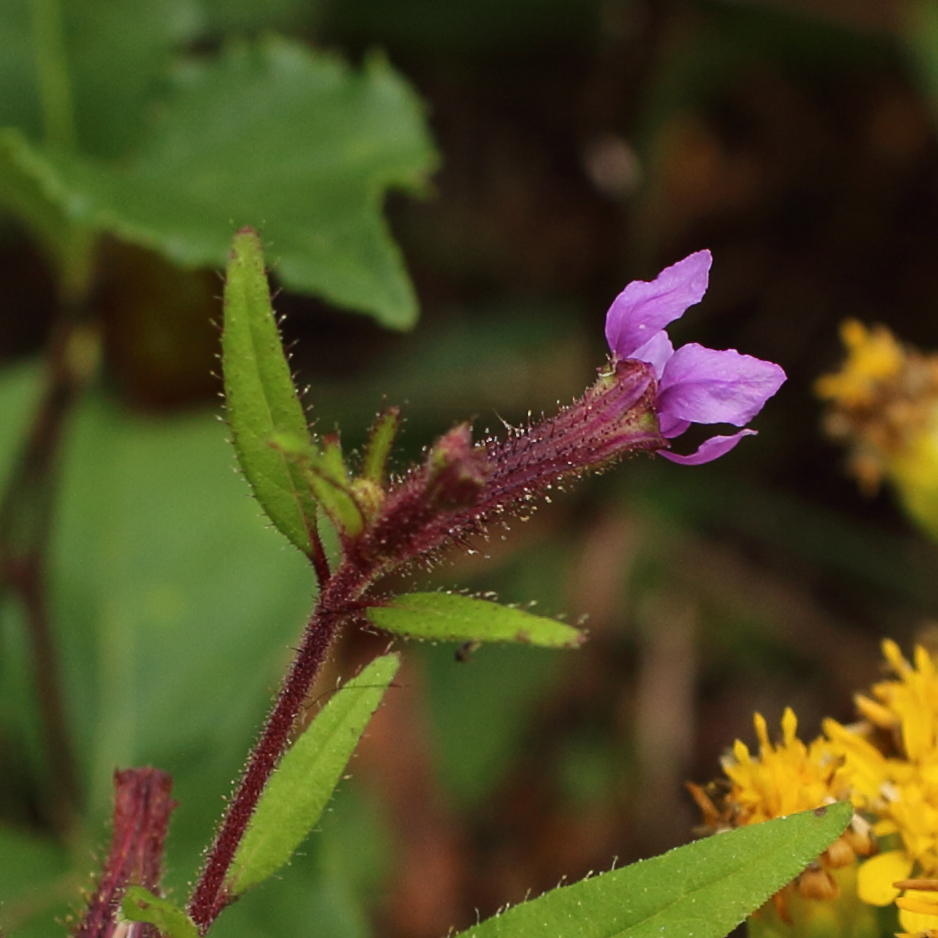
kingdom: Plantae
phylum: Tracheophyta
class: Magnoliopsida
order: Myrtales
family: Lythraceae
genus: Cuphea
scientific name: Cuphea viscosissima
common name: Clammy cuphea
